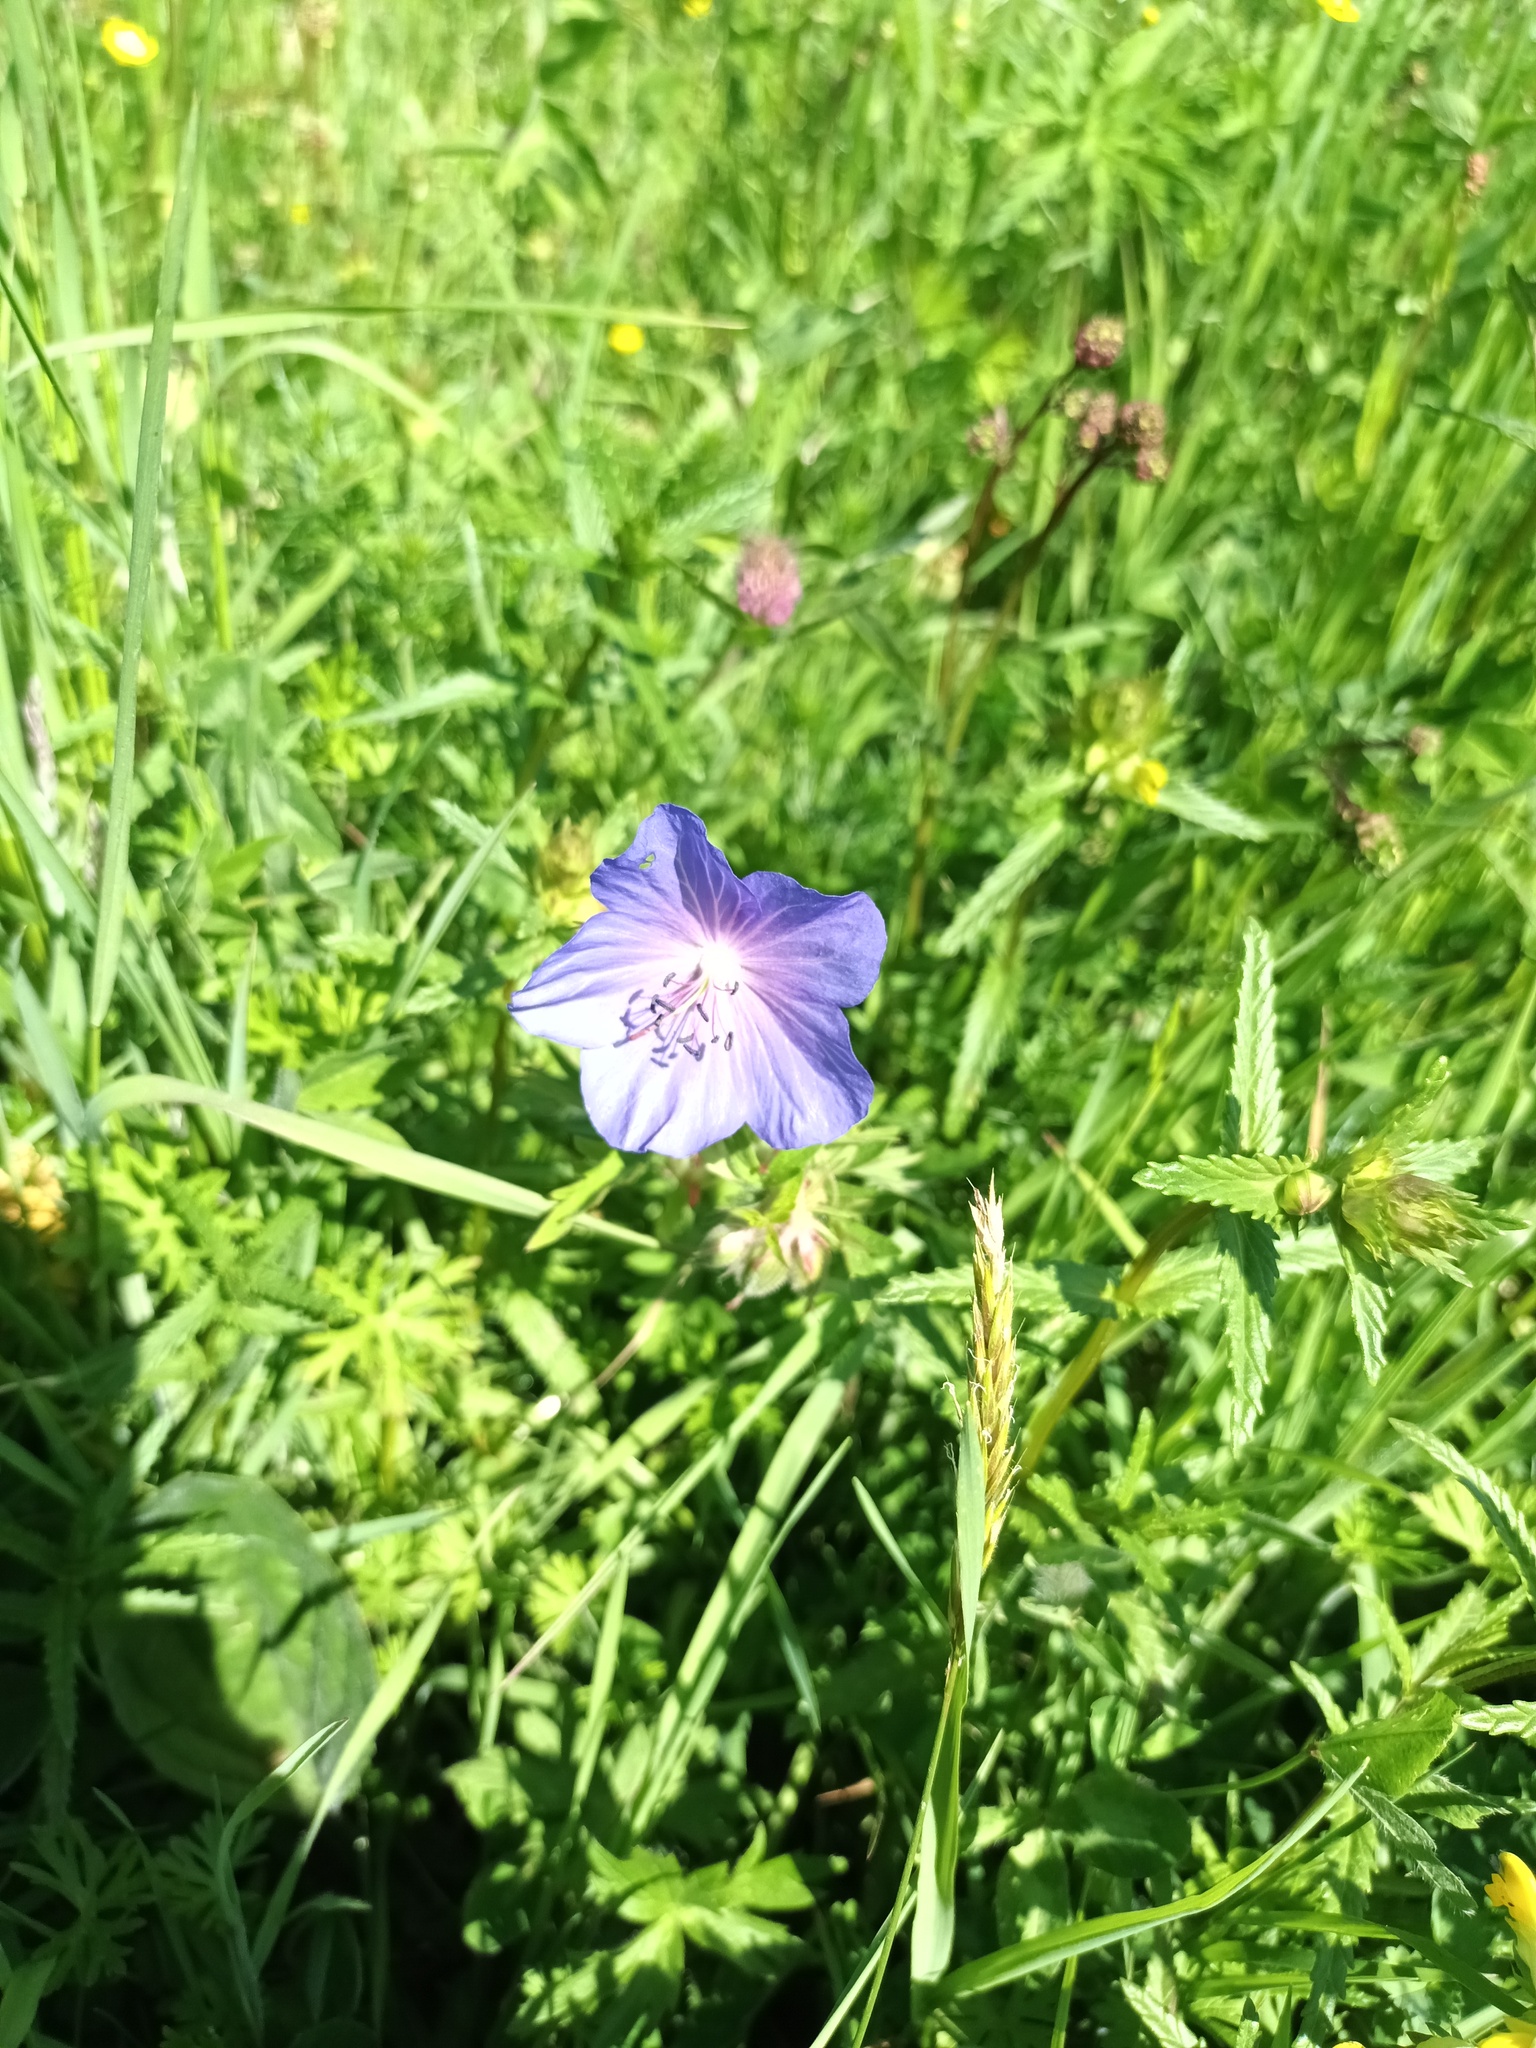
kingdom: Plantae
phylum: Tracheophyta
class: Magnoliopsida
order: Geraniales
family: Geraniaceae
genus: Geranium
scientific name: Geranium pratense
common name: Meadow crane's-bill
